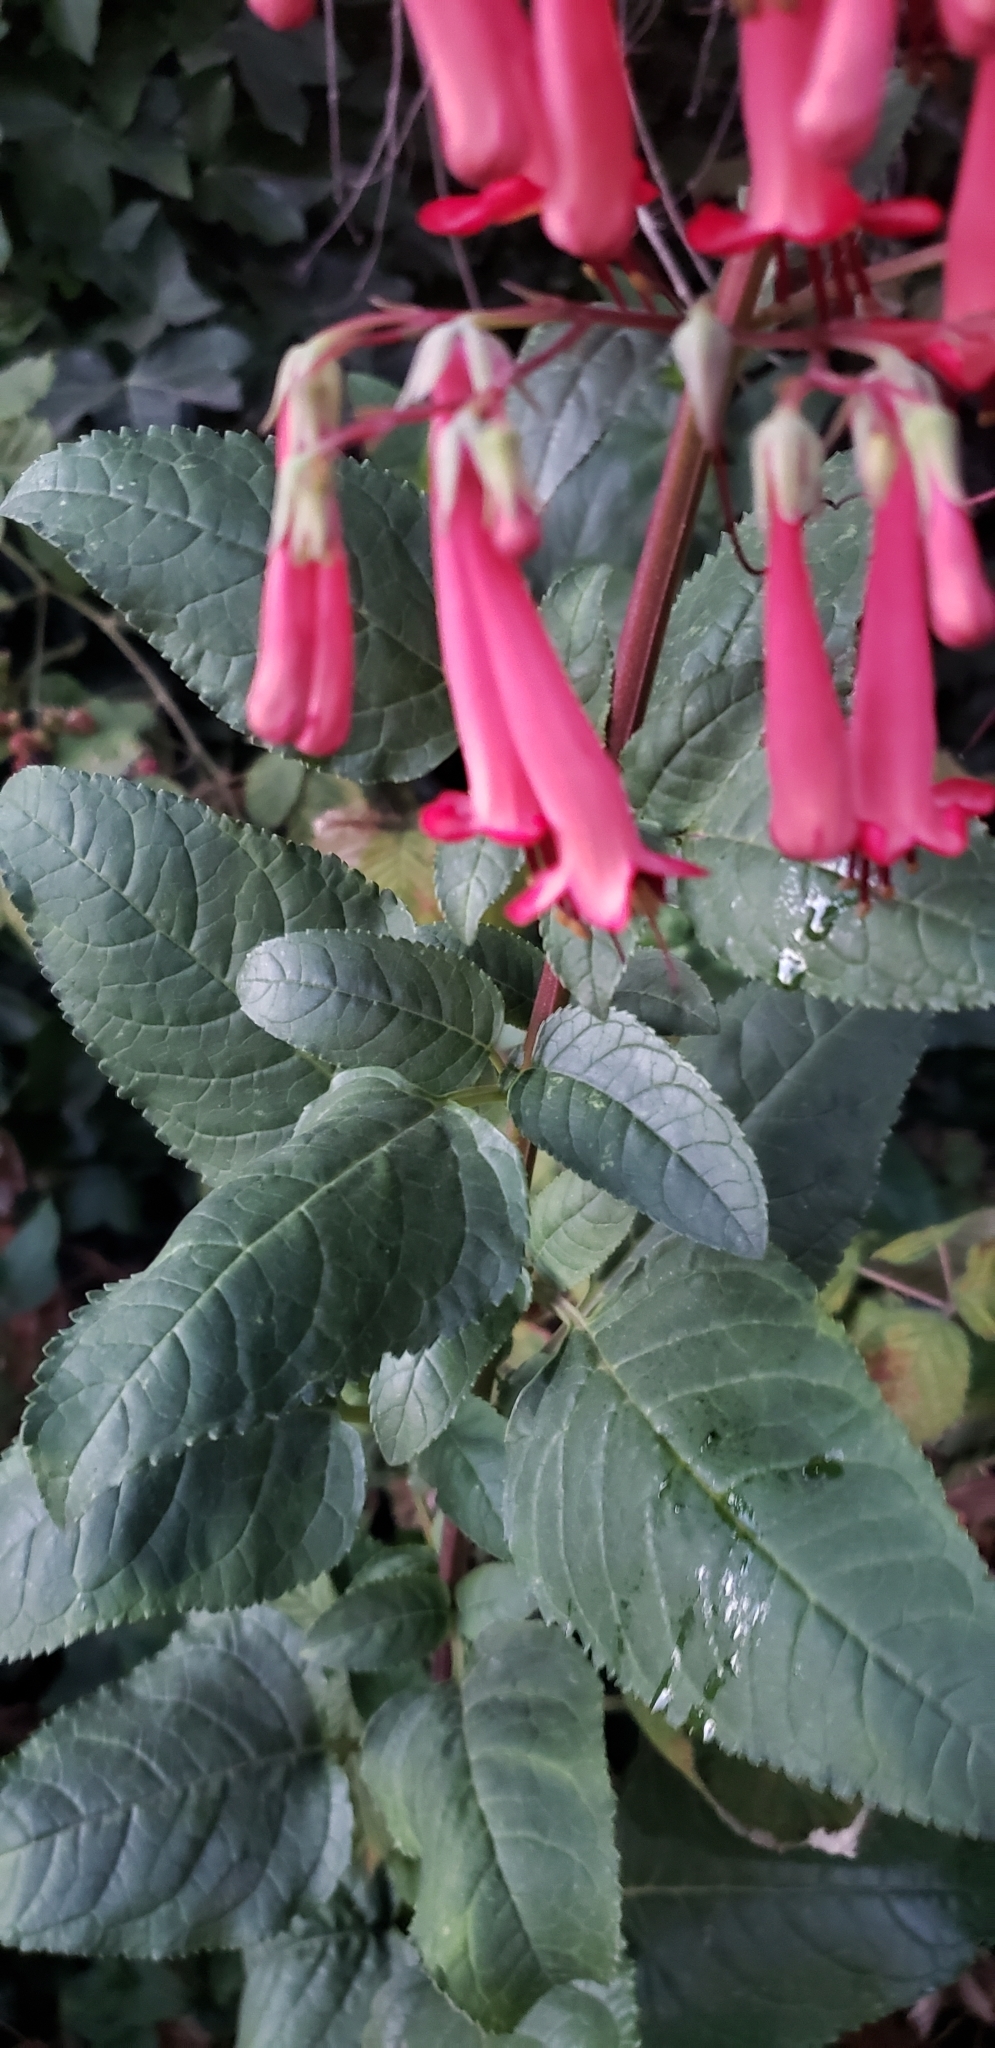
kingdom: Plantae
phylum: Tracheophyta
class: Magnoliopsida
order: Lamiales
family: Scrophulariaceae
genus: Phygelius
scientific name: Phygelius capensis
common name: Cape figwort
